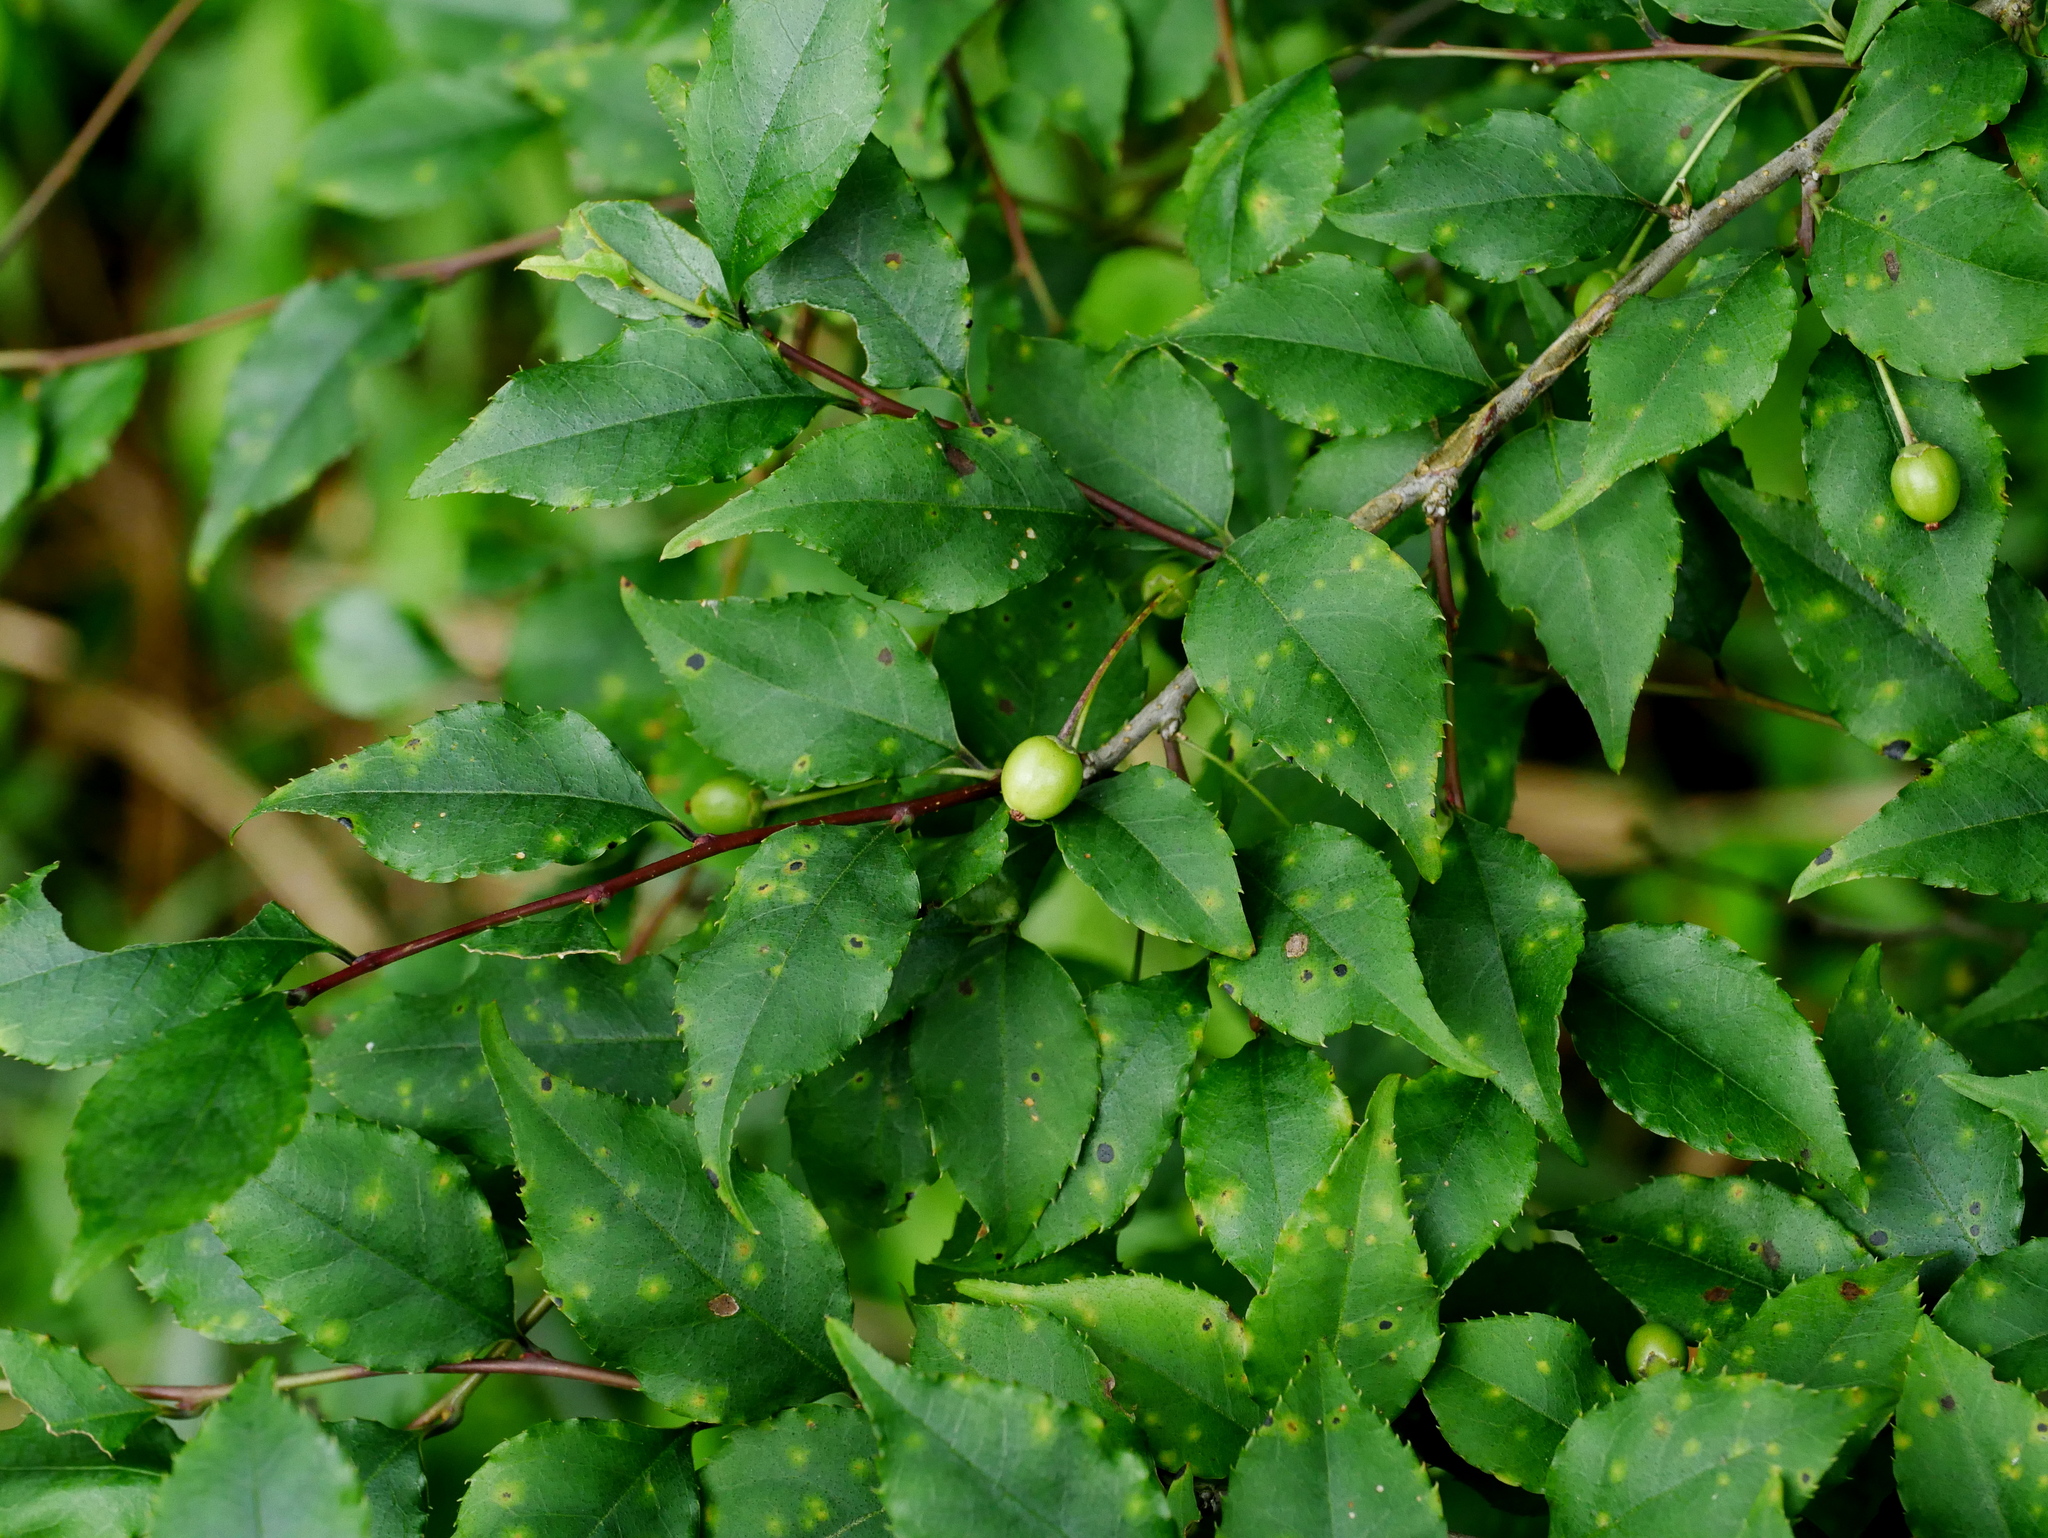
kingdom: Plantae
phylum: Tracheophyta
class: Magnoliopsida
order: Aquifoliales
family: Aquifoliaceae
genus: Ilex
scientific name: Ilex asprella
